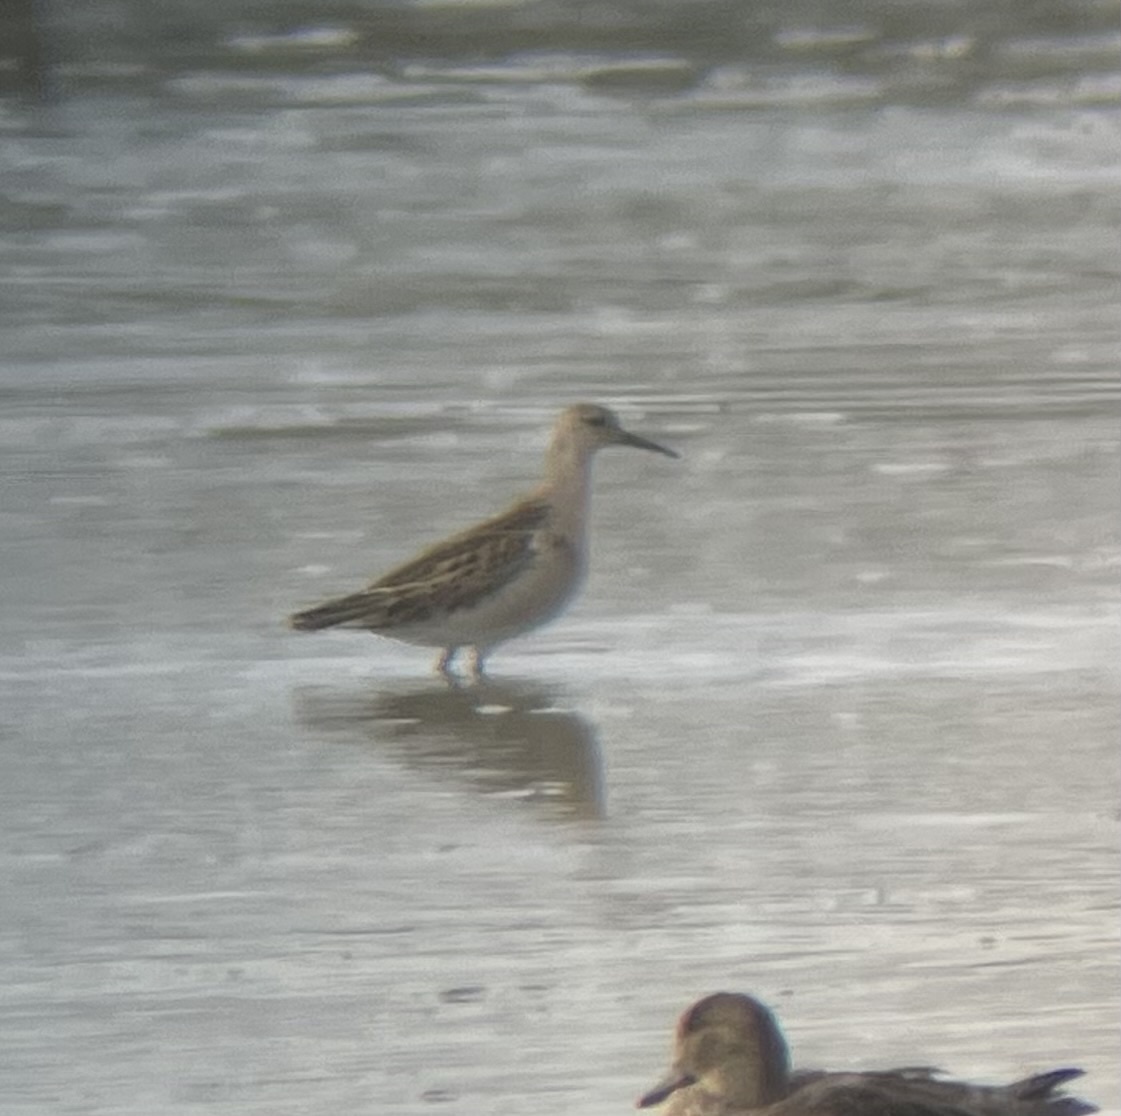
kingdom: Animalia
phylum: Chordata
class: Aves
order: Charadriiformes
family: Scolopacidae
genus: Calidris
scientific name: Calidris pugnax
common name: Ruff
